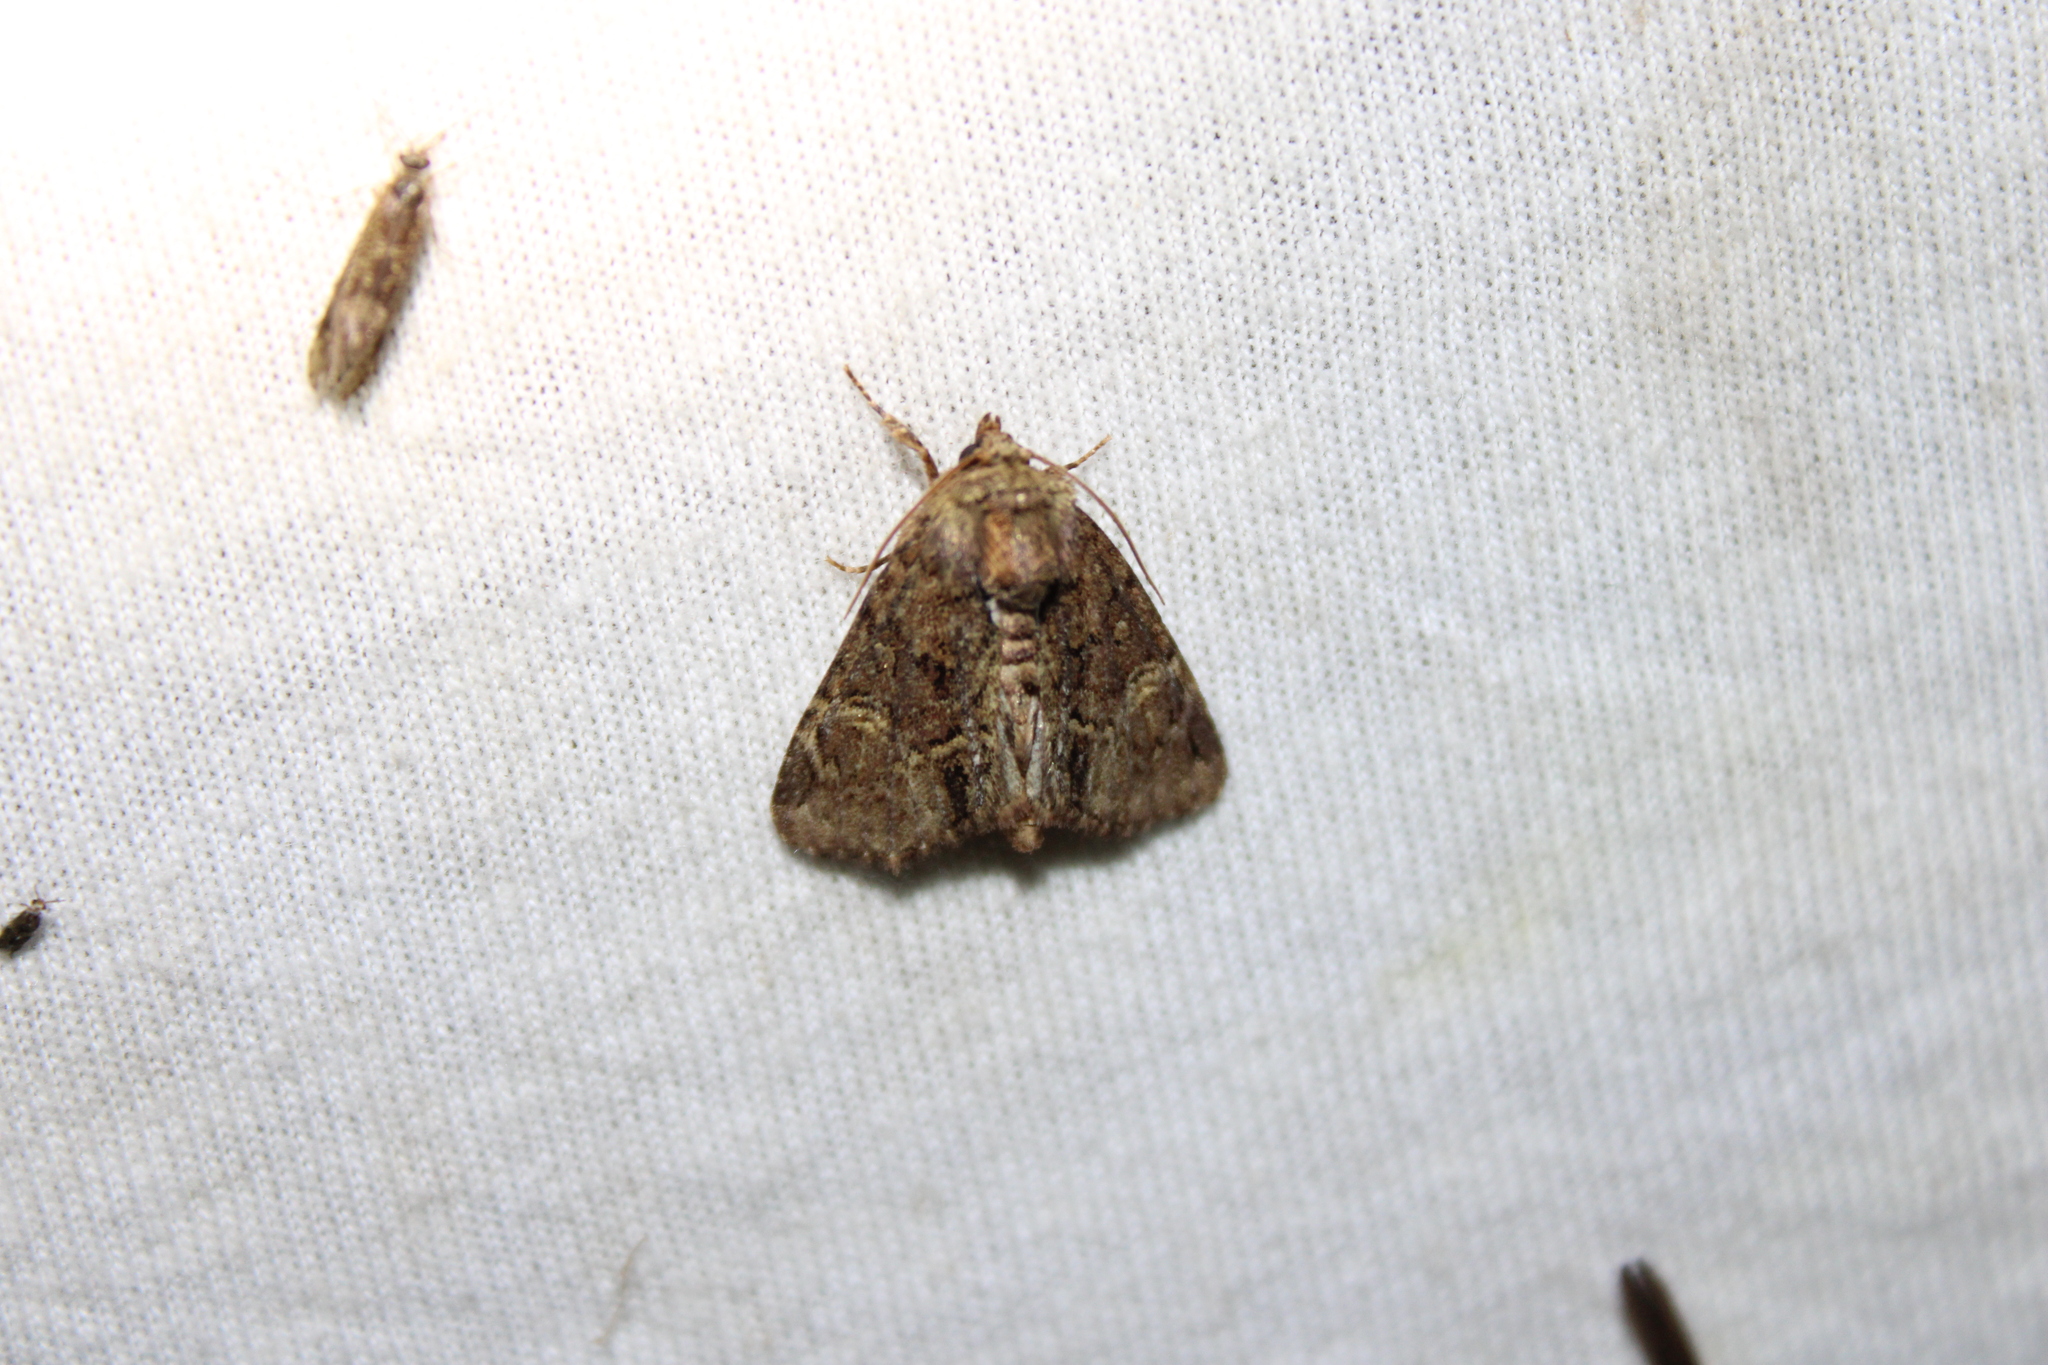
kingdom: Animalia
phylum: Arthropoda
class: Insecta
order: Lepidoptera
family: Noctuidae
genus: Phosphila
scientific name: Phosphila turbulenta
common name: Turbulent phosphila moth
